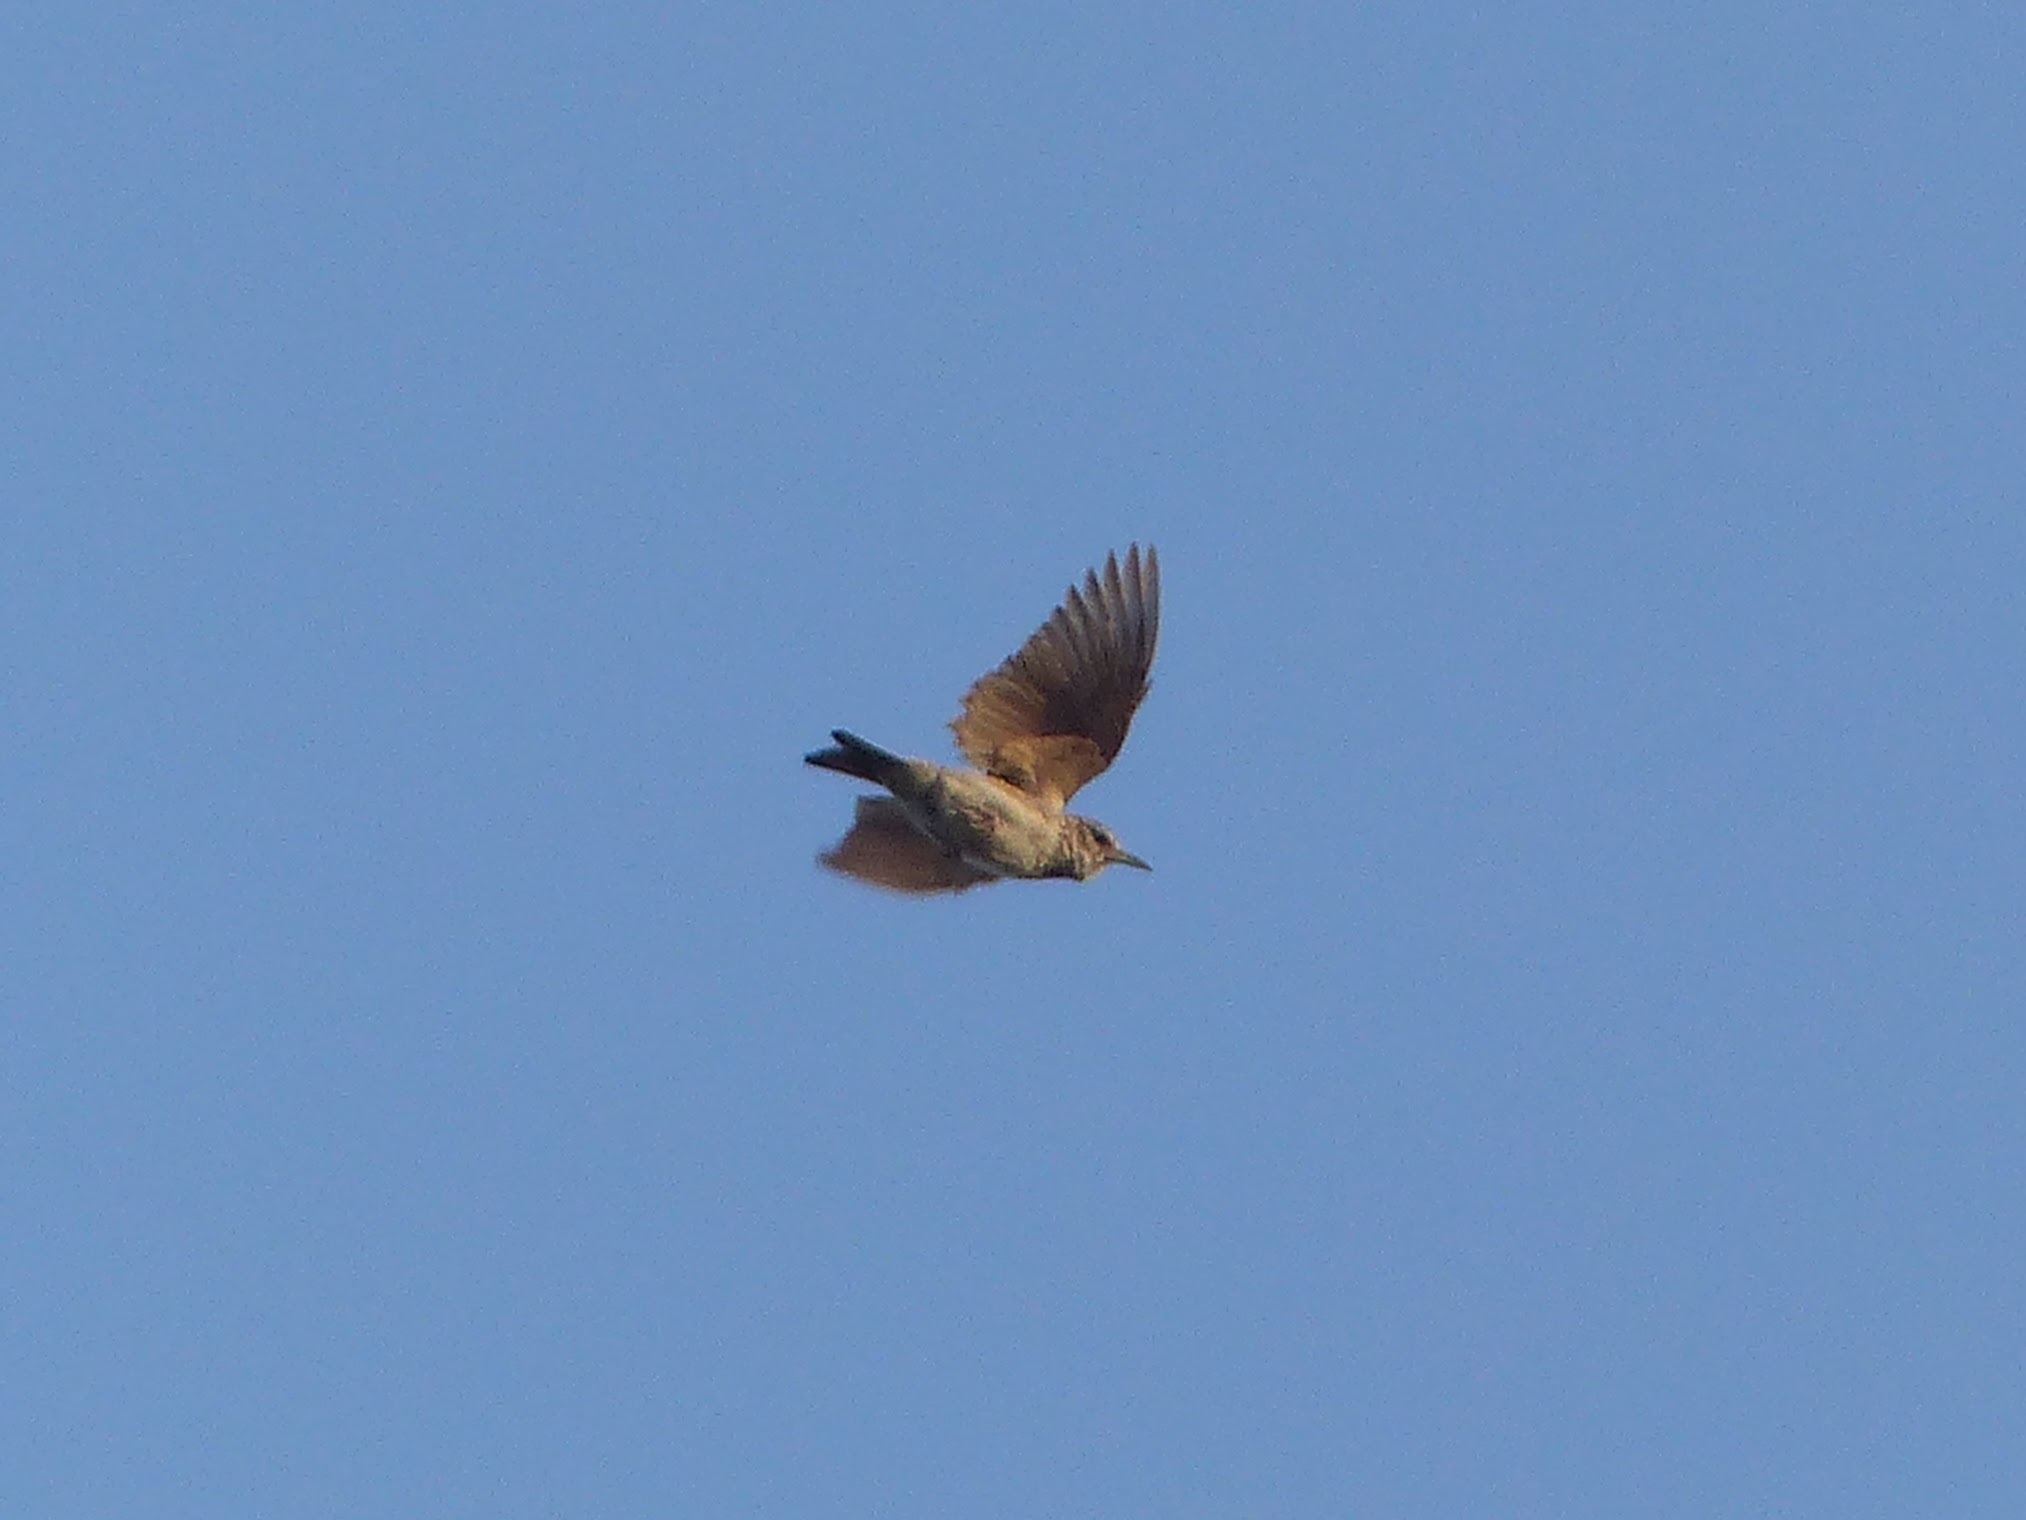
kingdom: Animalia
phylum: Chordata
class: Aves
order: Passeriformes
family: Alaudidae
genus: Galerida
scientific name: Galerida cristata
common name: Crested lark
